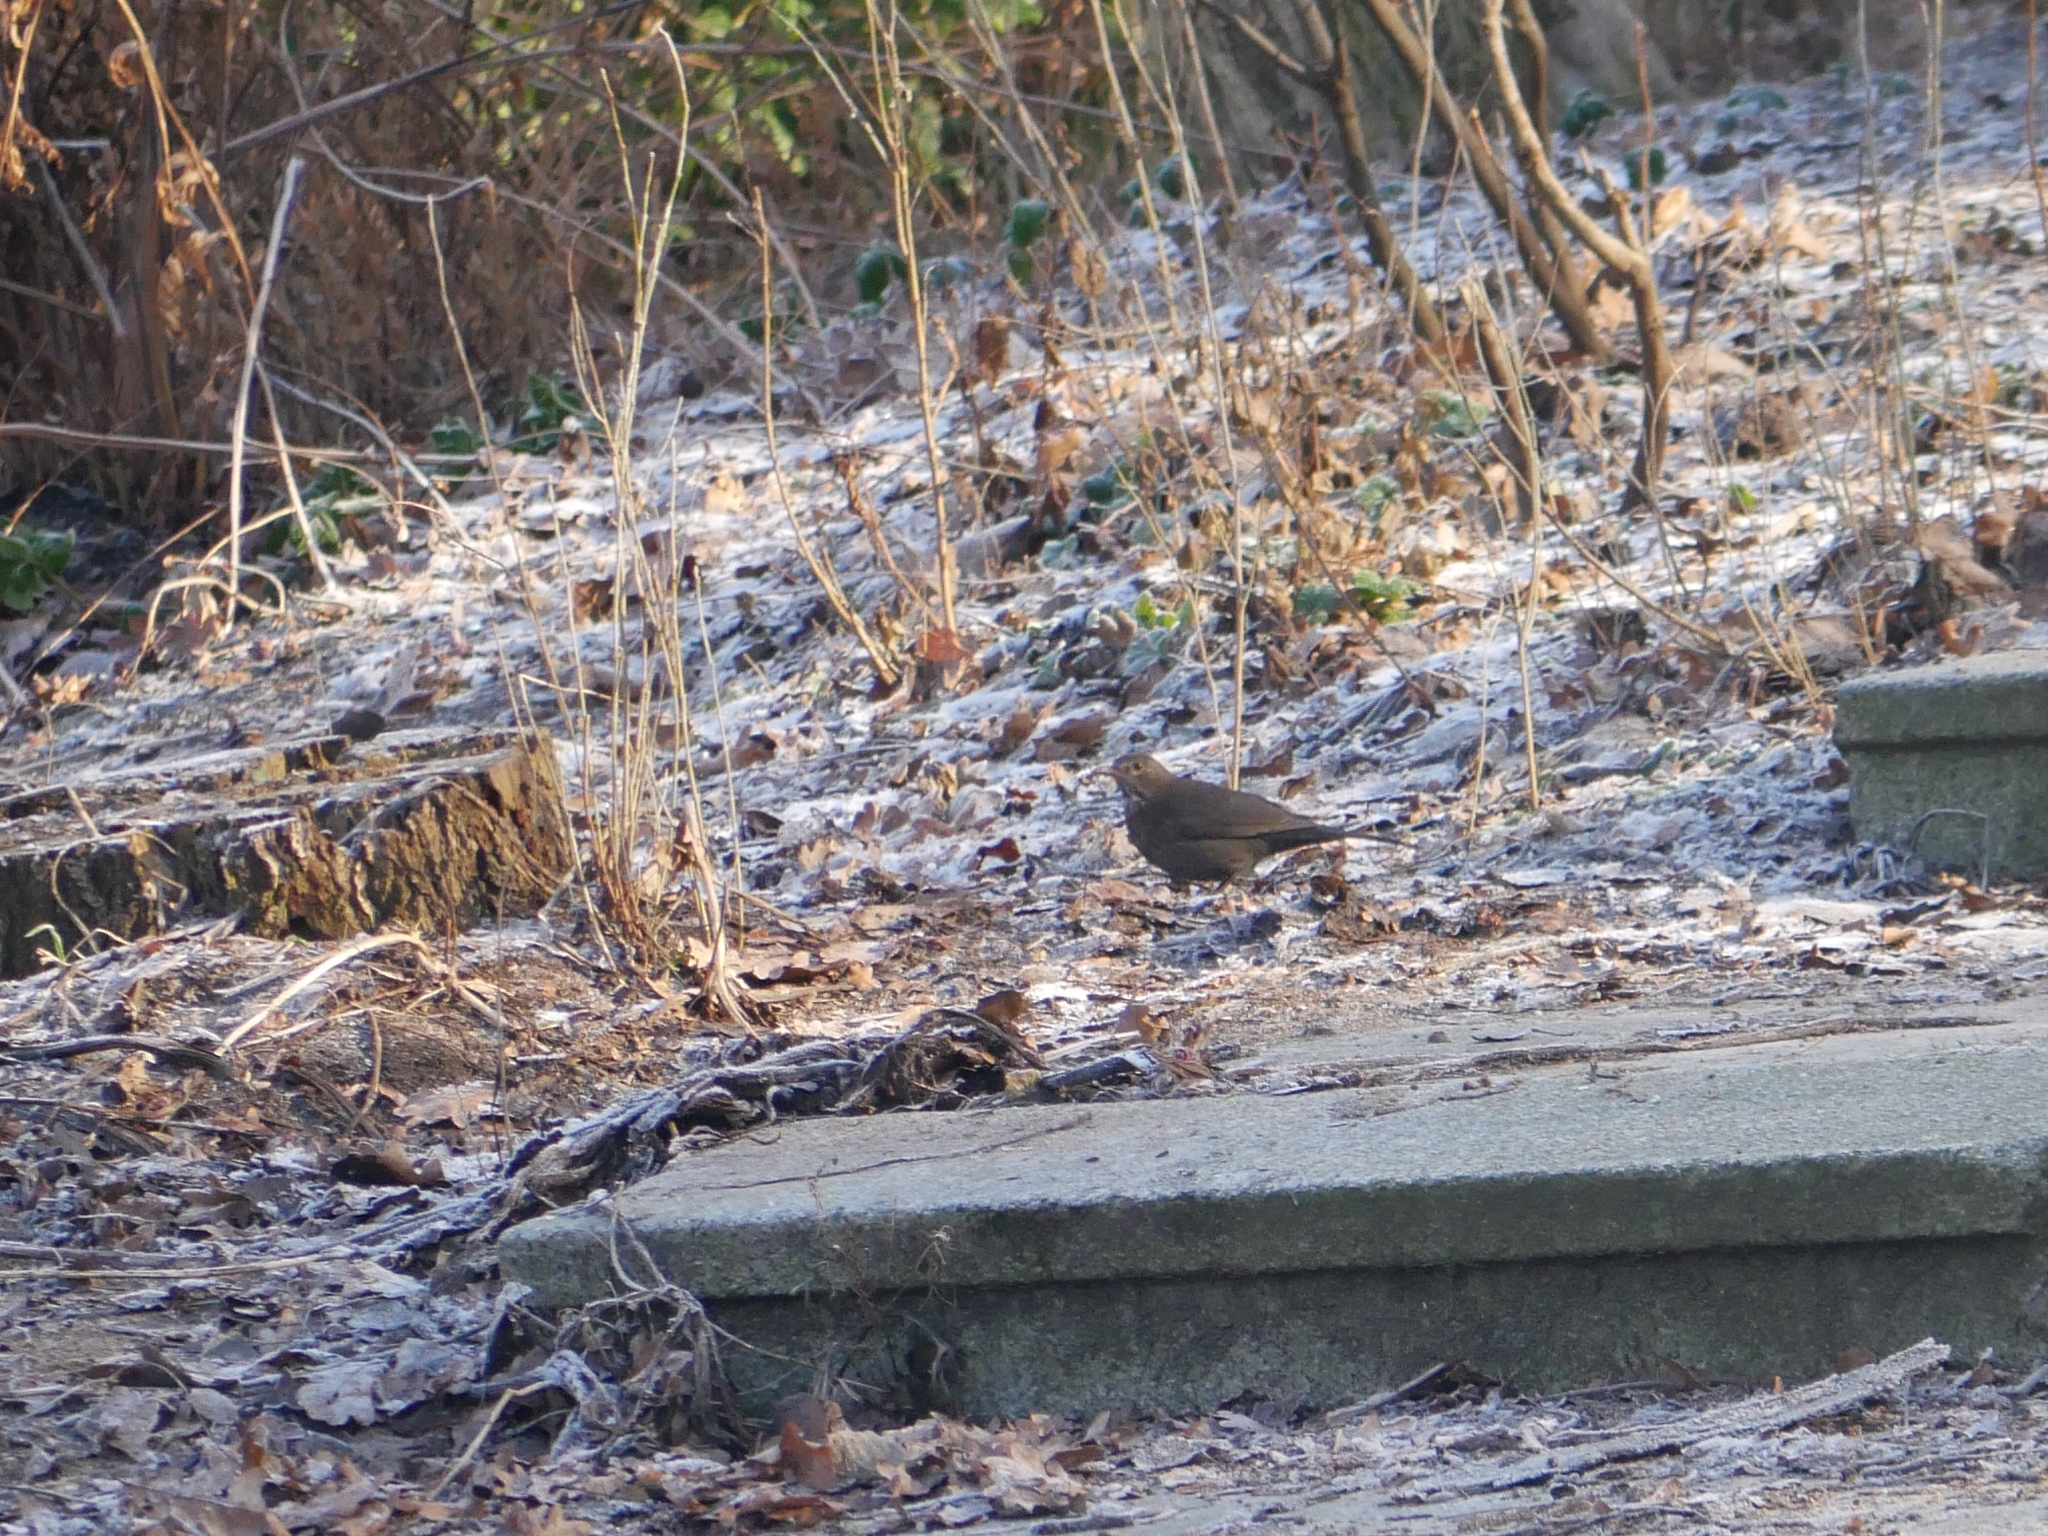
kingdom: Animalia
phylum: Chordata
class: Aves
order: Passeriformes
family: Turdidae
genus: Turdus
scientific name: Turdus merula
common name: Common blackbird
